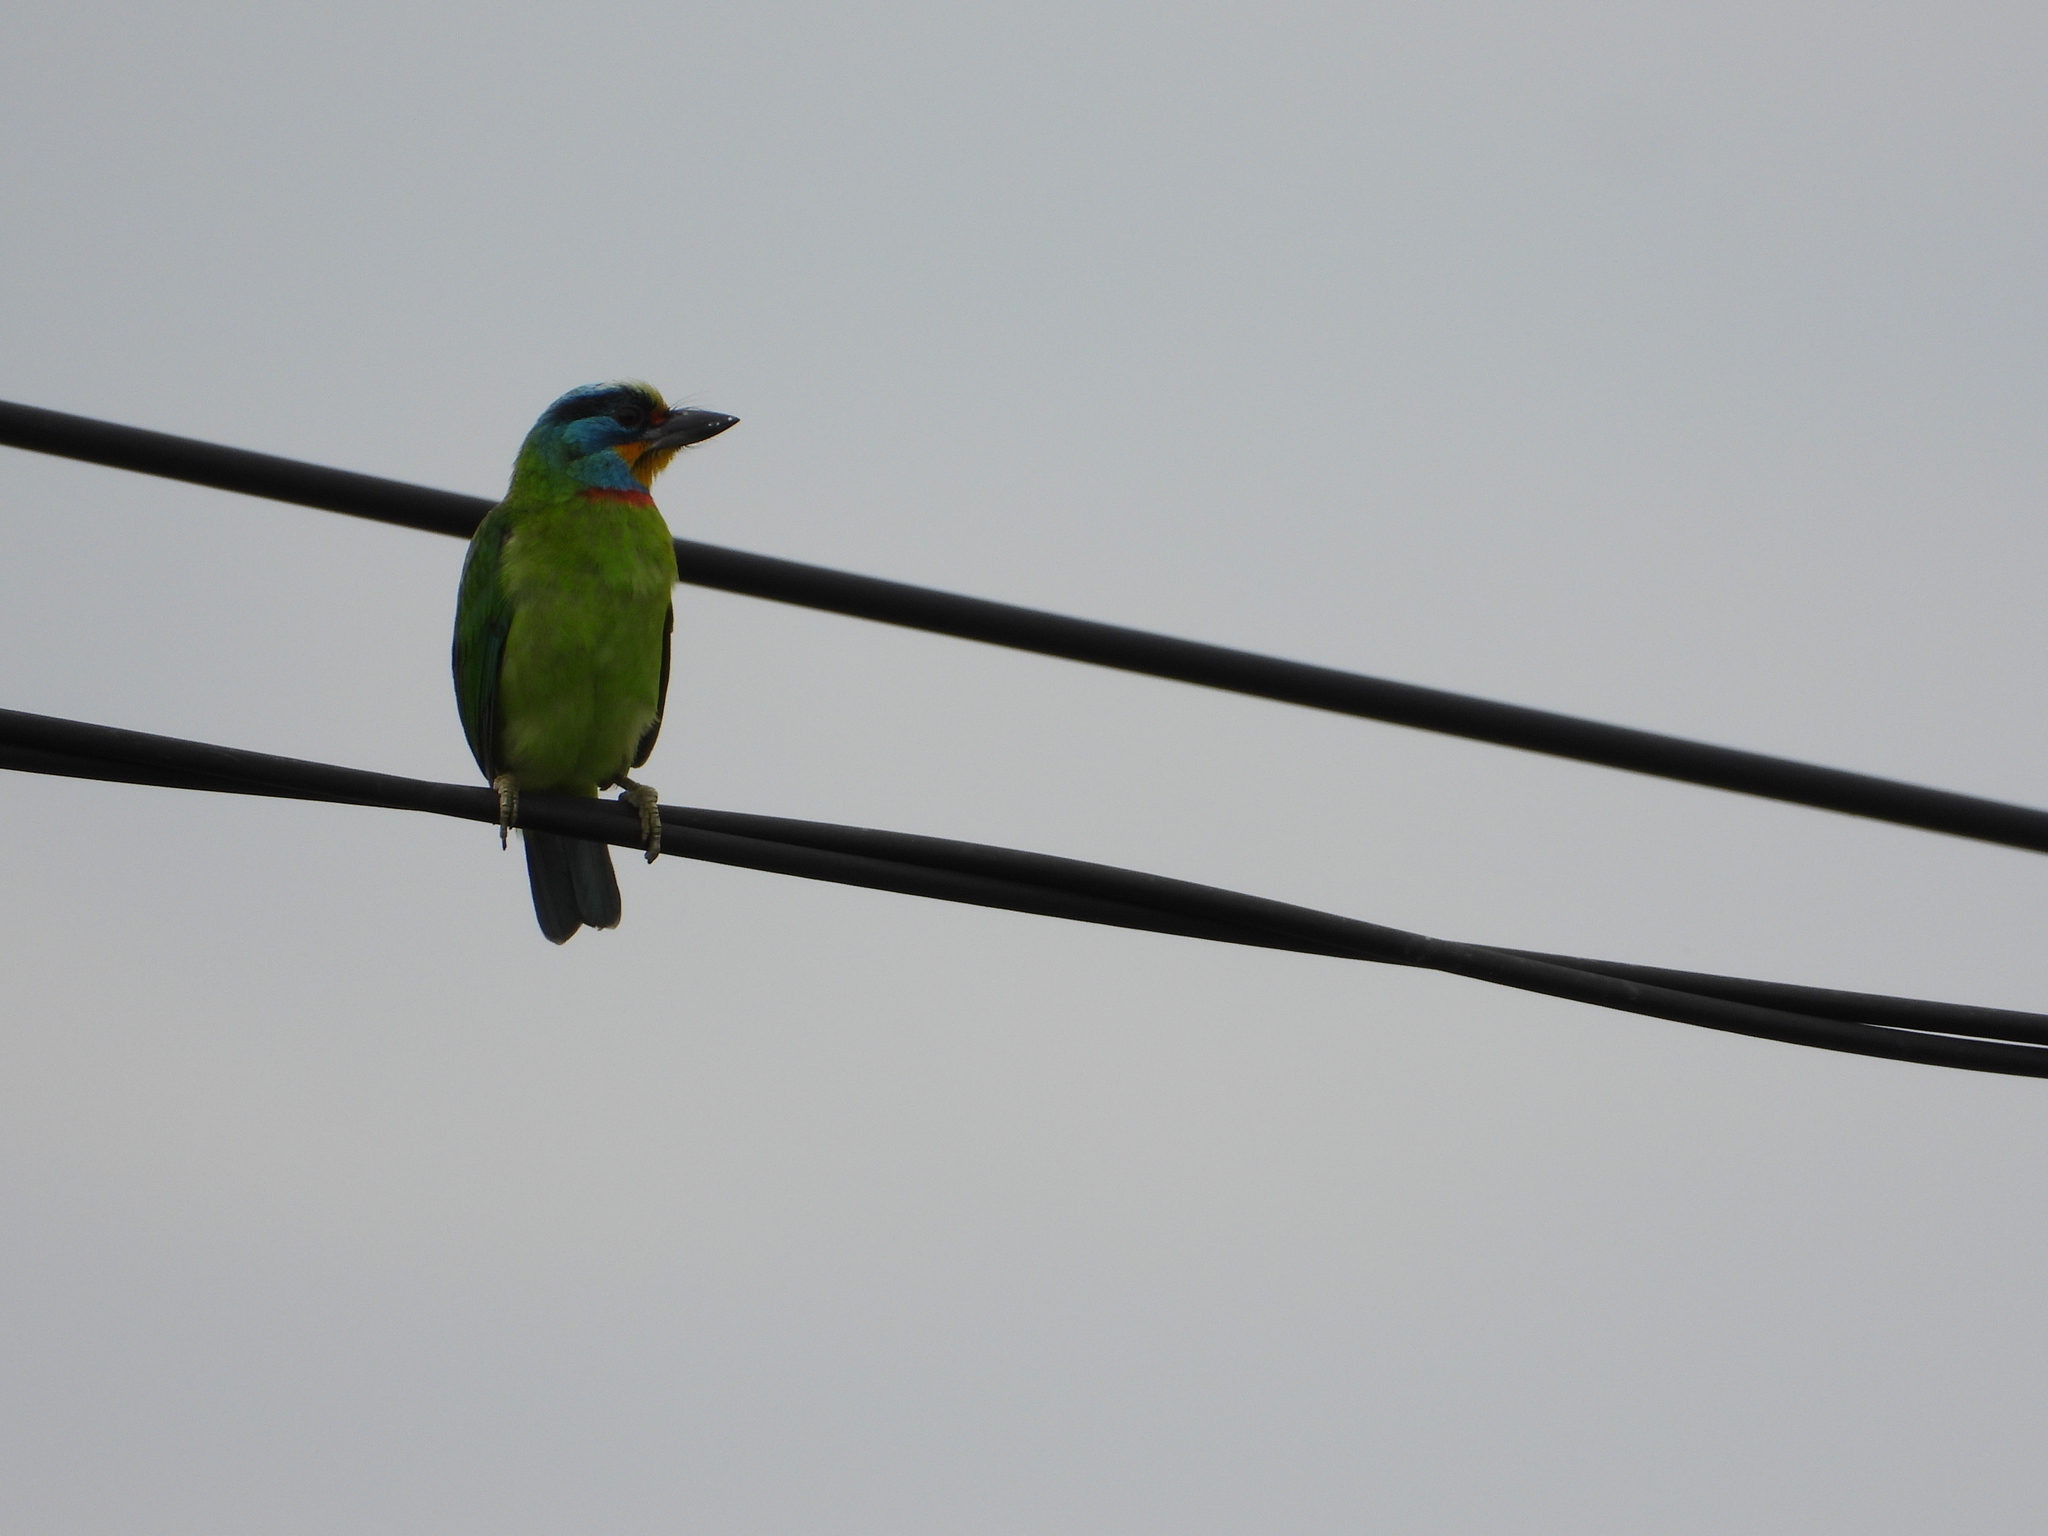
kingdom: Animalia
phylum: Chordata
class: Aves
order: Piciformes
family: Megalaimidae
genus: Psilopogon
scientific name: Psilopogon nuchalis
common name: Taiwan barbet
